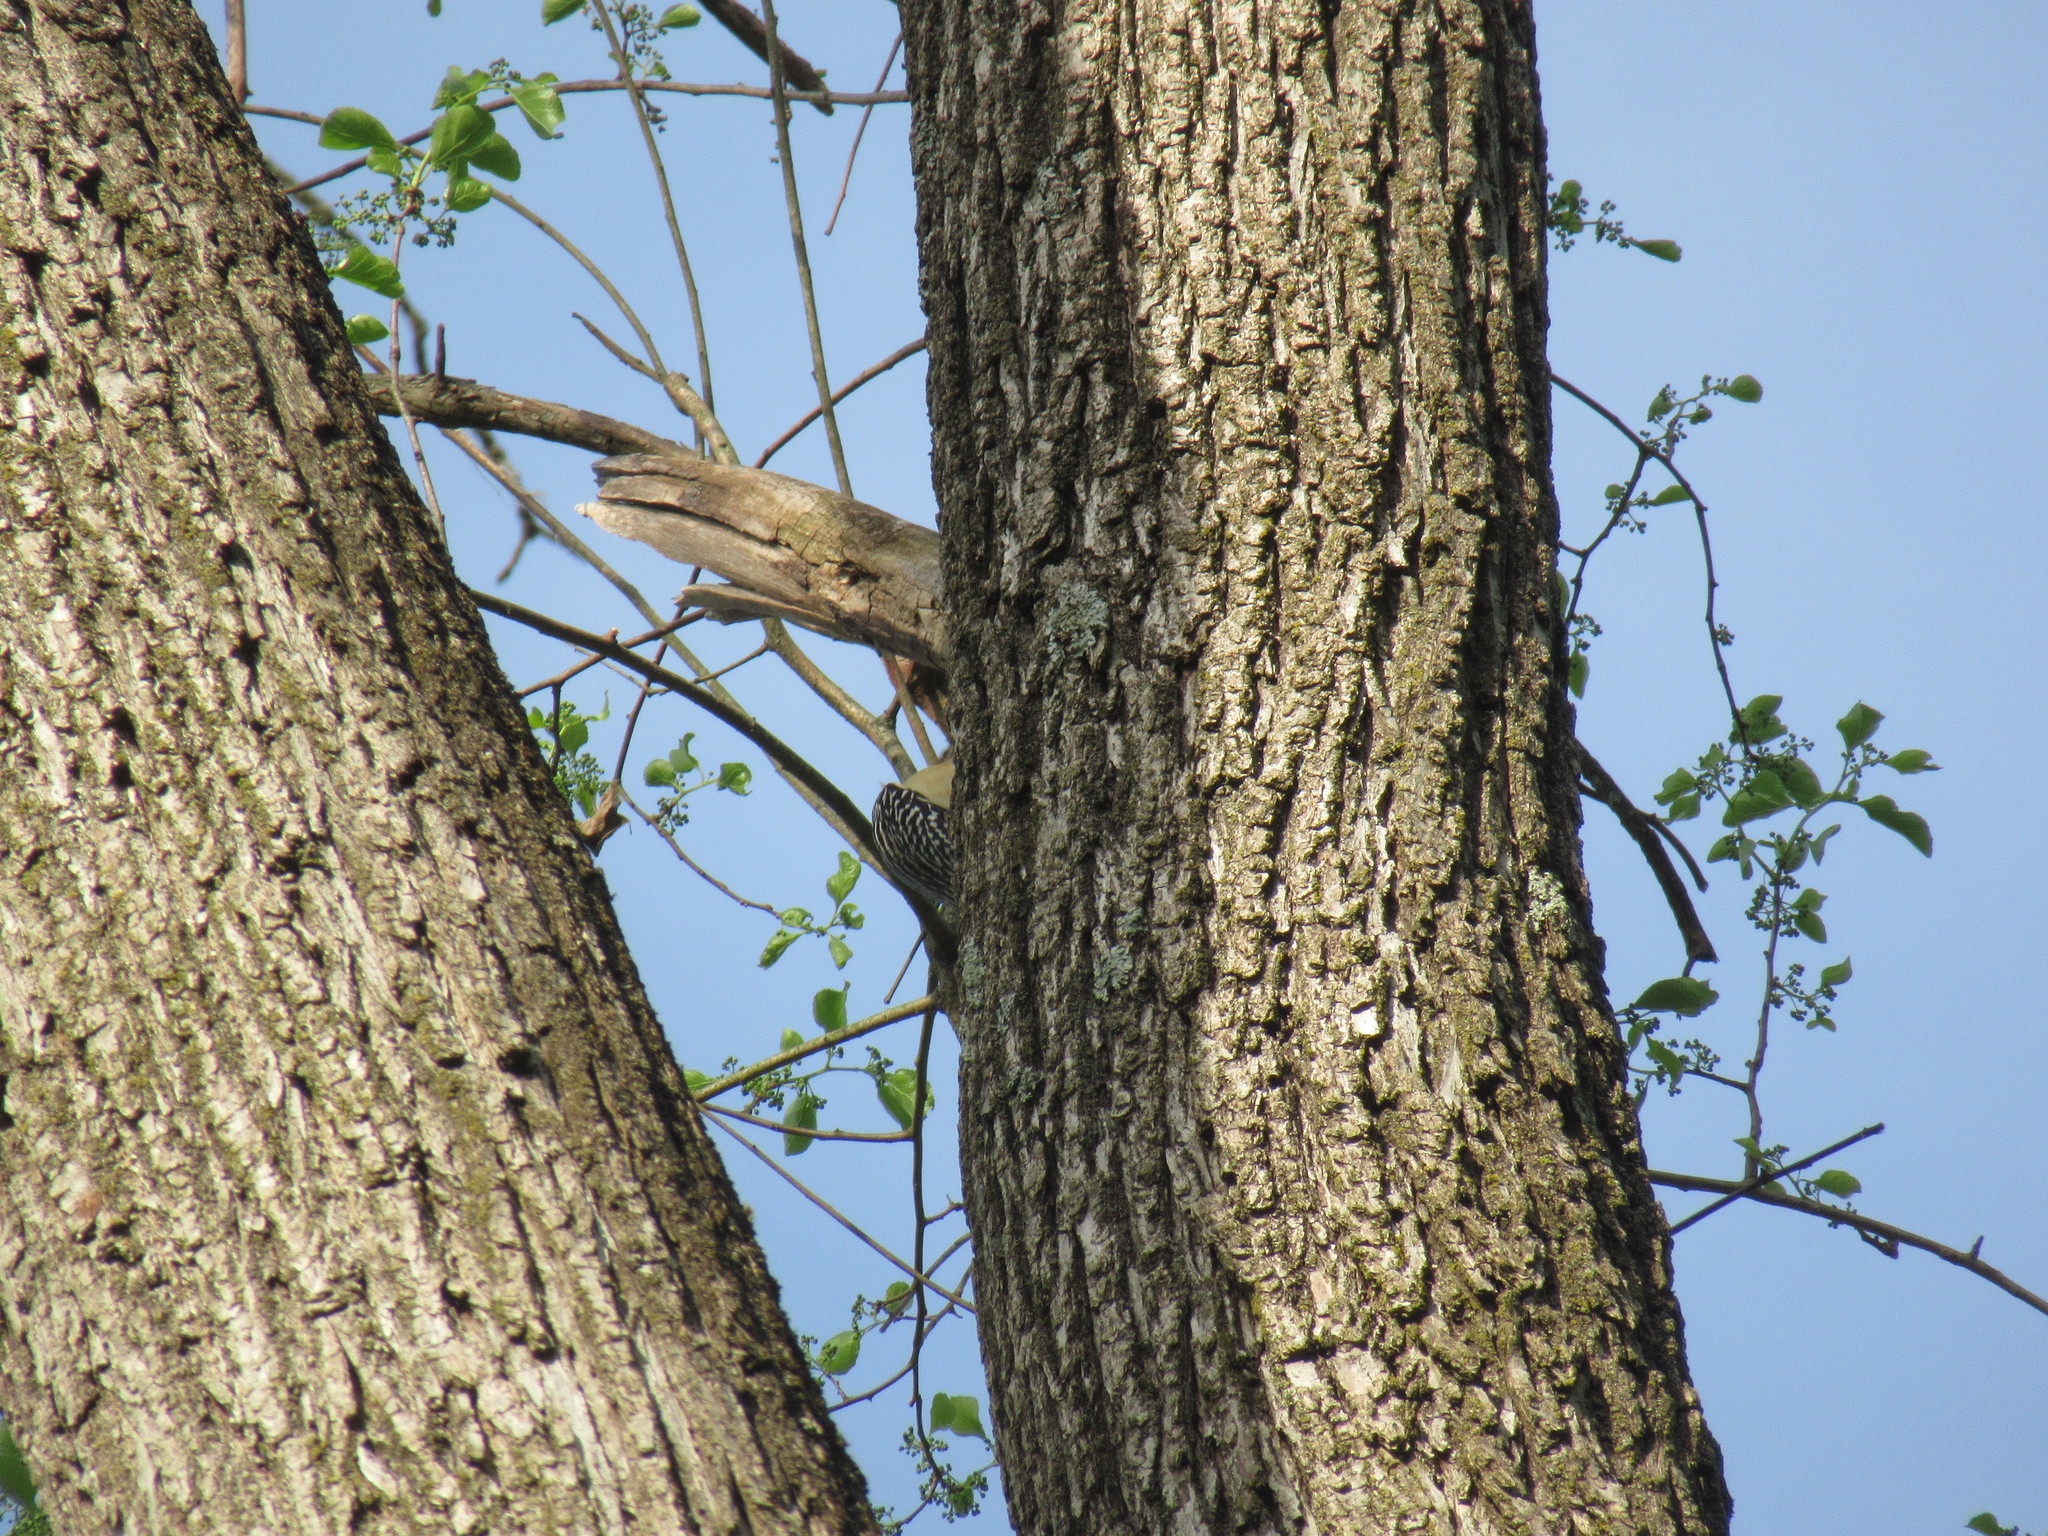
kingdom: Animalia
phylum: Chordata
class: Aves
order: Piciformes
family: Picidae
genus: Melanerpes
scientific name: Melanerpes carolinus
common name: Red-bellied woodpecker
